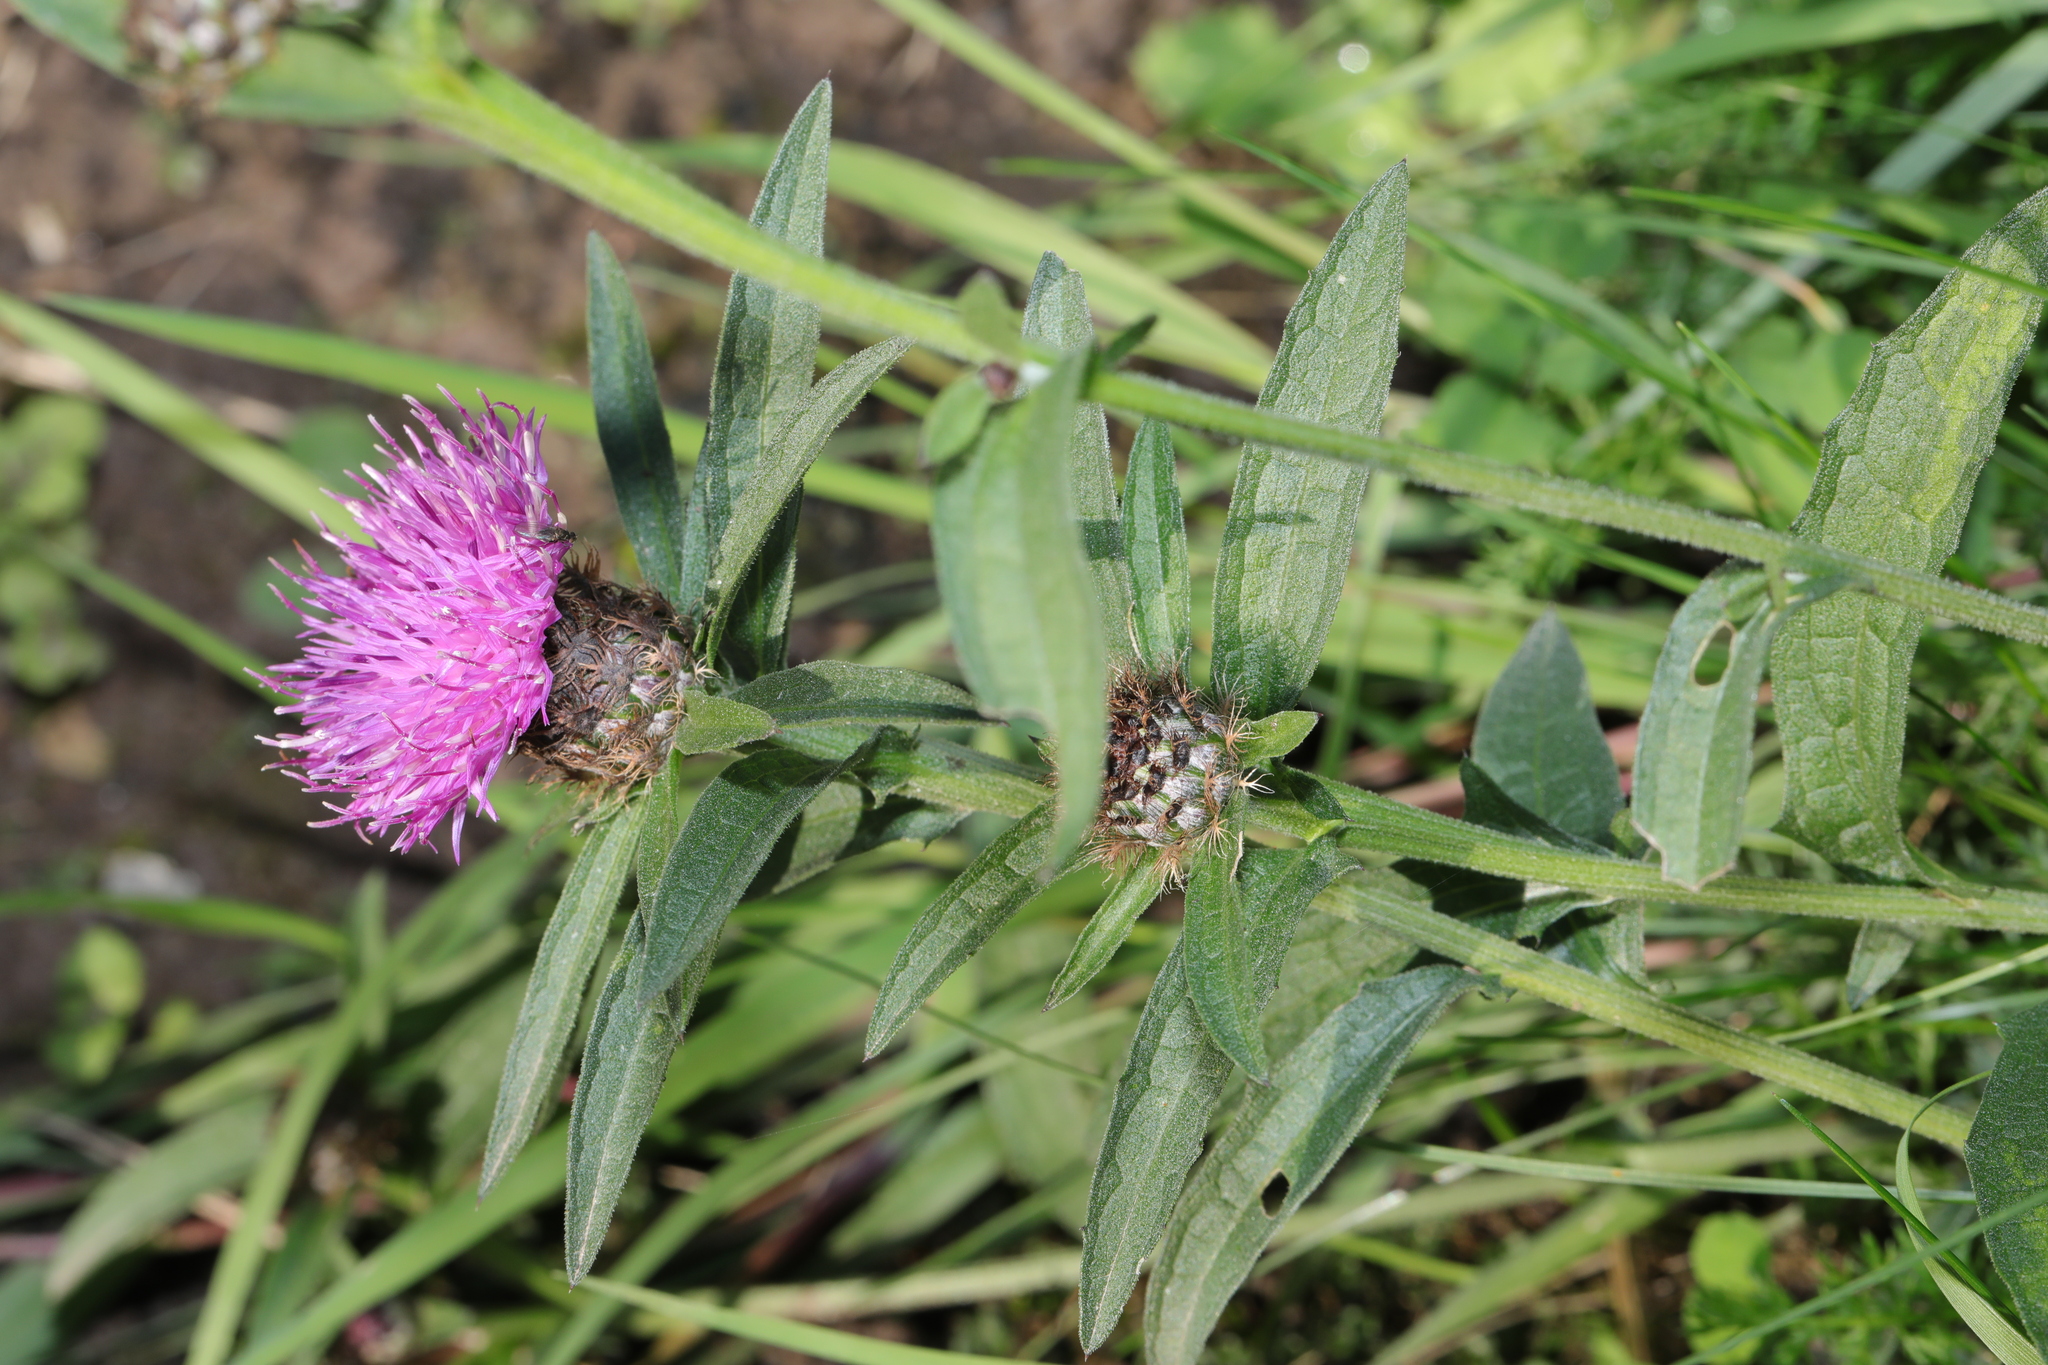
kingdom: Plantae
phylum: Tracheophyta
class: Magnoliopsida
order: Asterales
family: Asteraceae
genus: Centaurea
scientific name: Centaurea nigra
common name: Lesser knapweed
